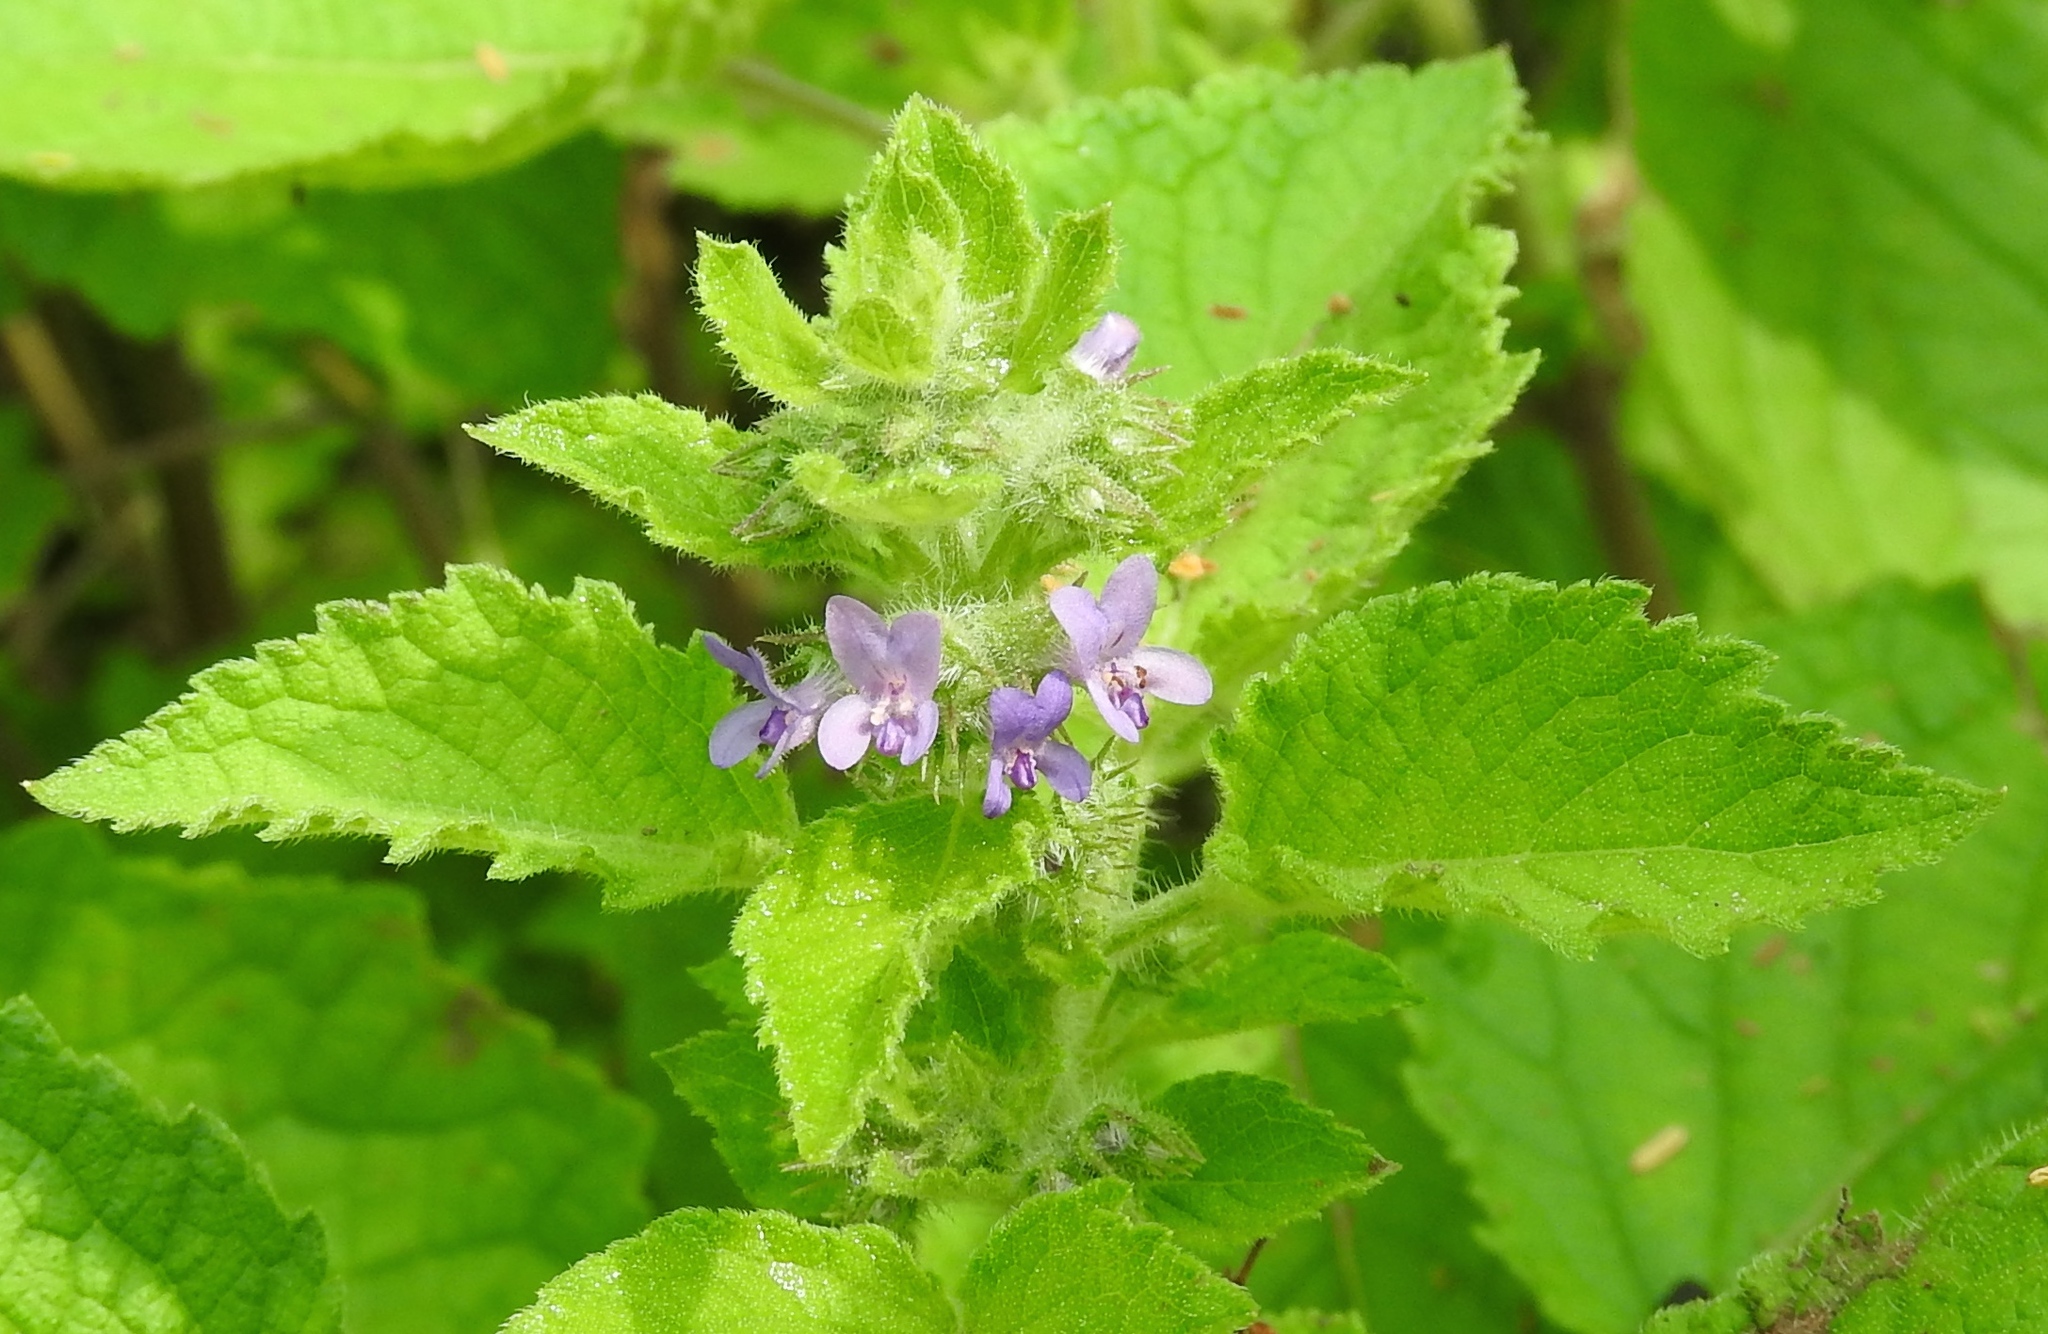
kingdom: Plantae
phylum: Tracheophyta
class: Magnoliopsida
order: Lamiales
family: Lamiaceae
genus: Mesosphaerum
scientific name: Mesosphaerum suaveolens
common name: Pignut
